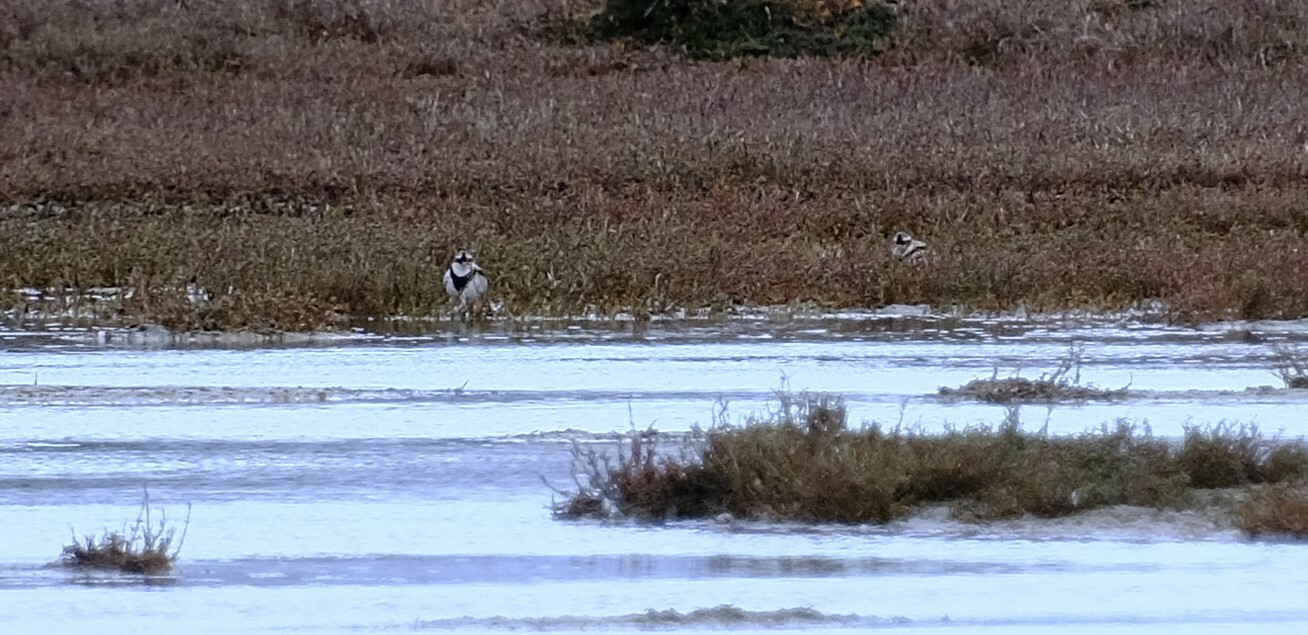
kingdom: Animalia
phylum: Chordata
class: Aves
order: Charadriiformes
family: Charadriidae
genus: Elseyornis
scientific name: Elseyornis melanops
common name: Black-fronted dotterel
